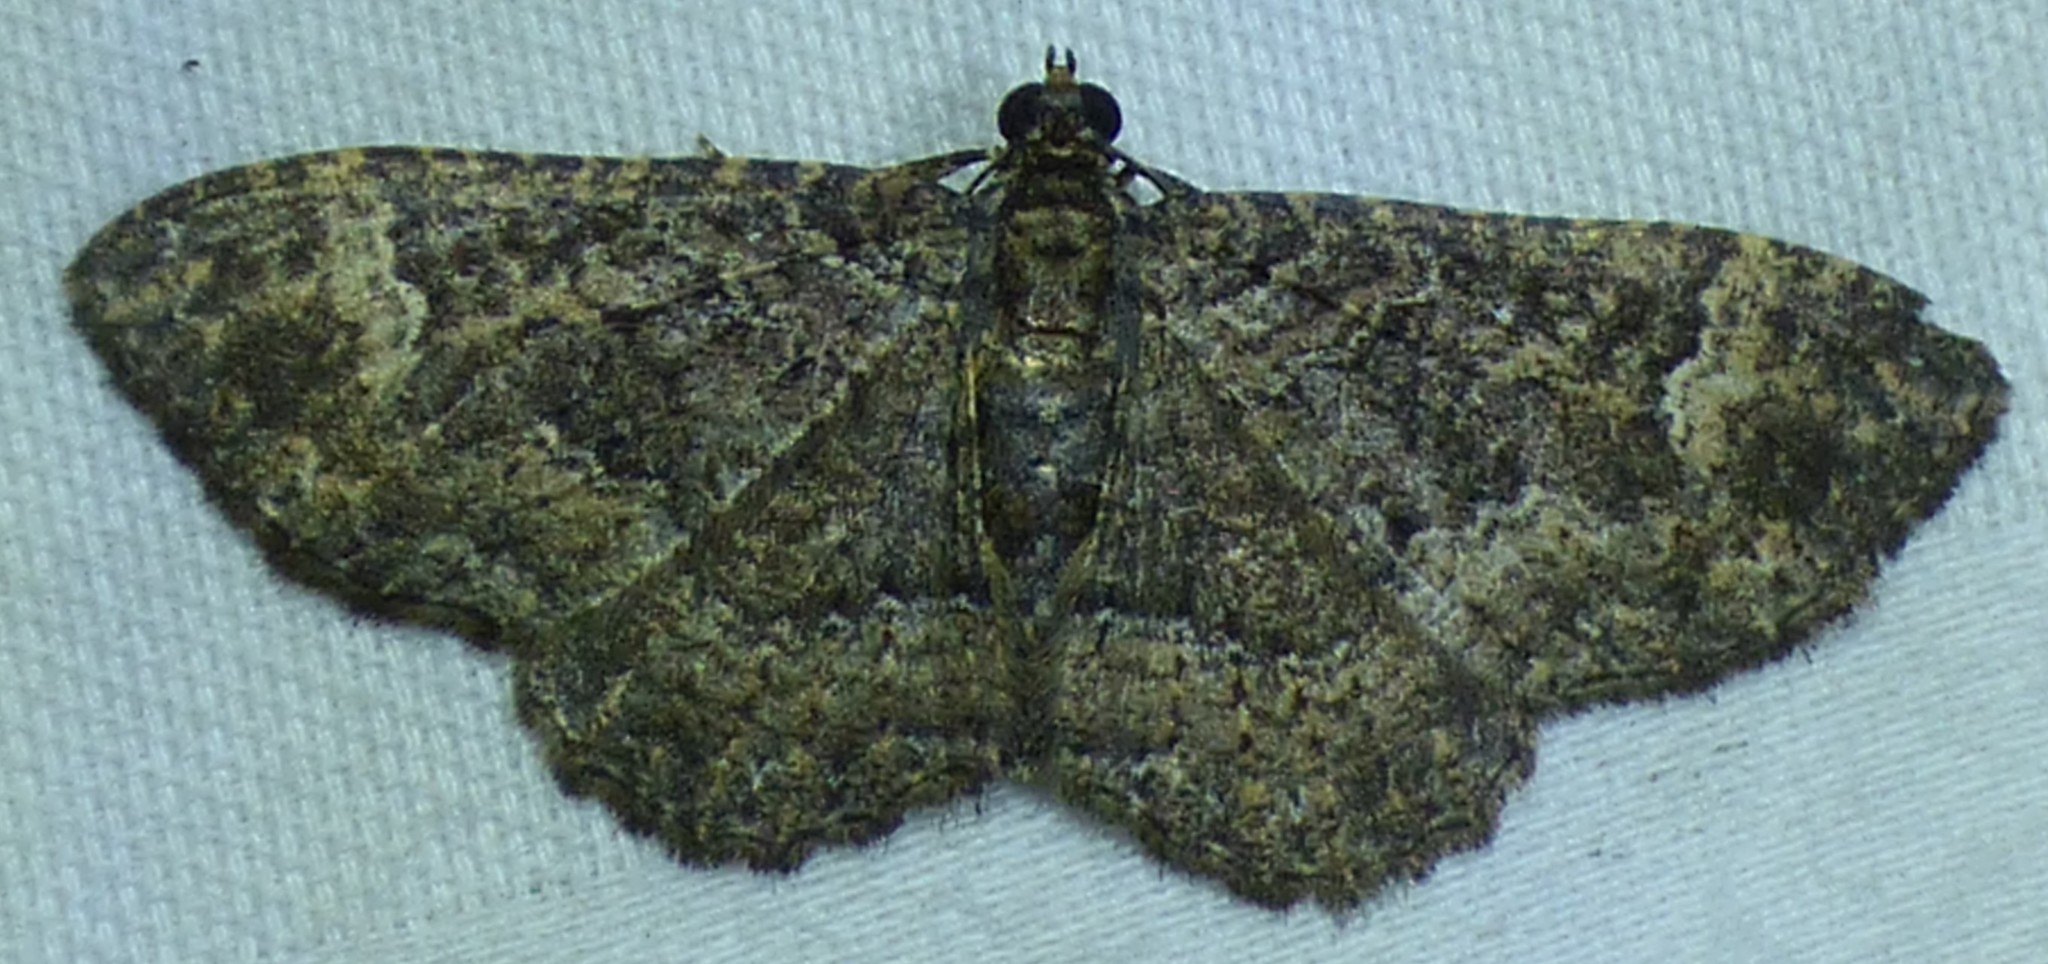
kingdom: Animalia
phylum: Arthropoda
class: Insecta
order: Lepidoptera
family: Geometridae
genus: Disclisioprocta
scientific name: Disclisioprocta stellata
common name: Somber carpet
